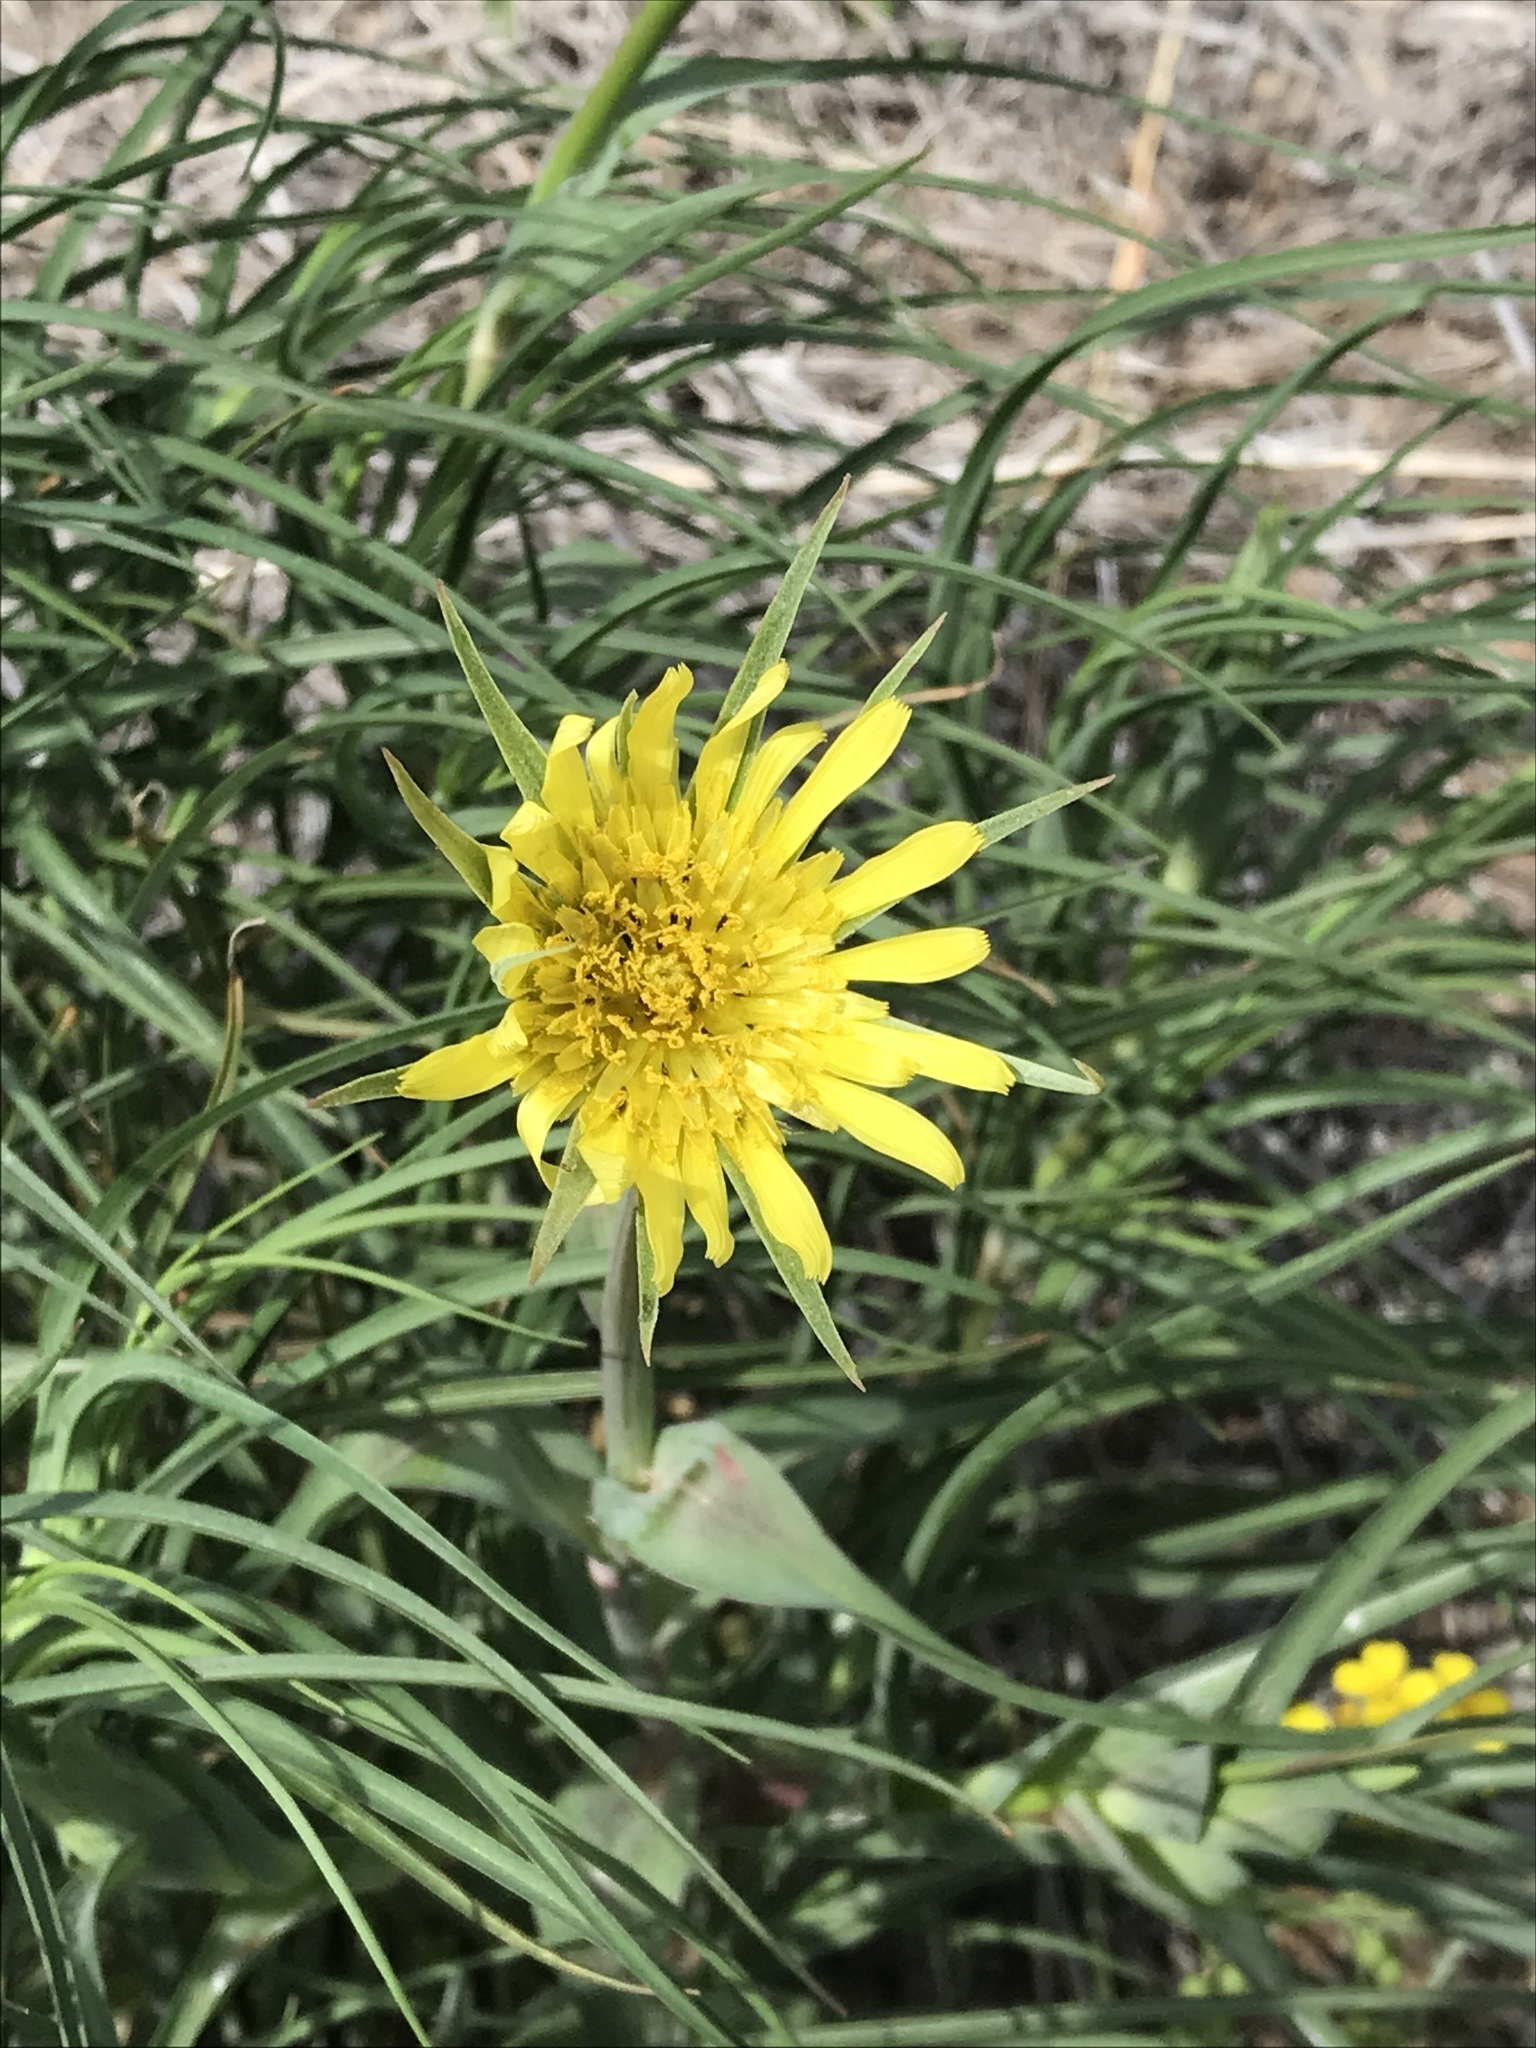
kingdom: Plantae
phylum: Tracheophyta
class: Magnoliopsida
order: Asterales
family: Asteraceae
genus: Tragopogon
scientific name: Tragopogon dubius
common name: Yellow salsify
